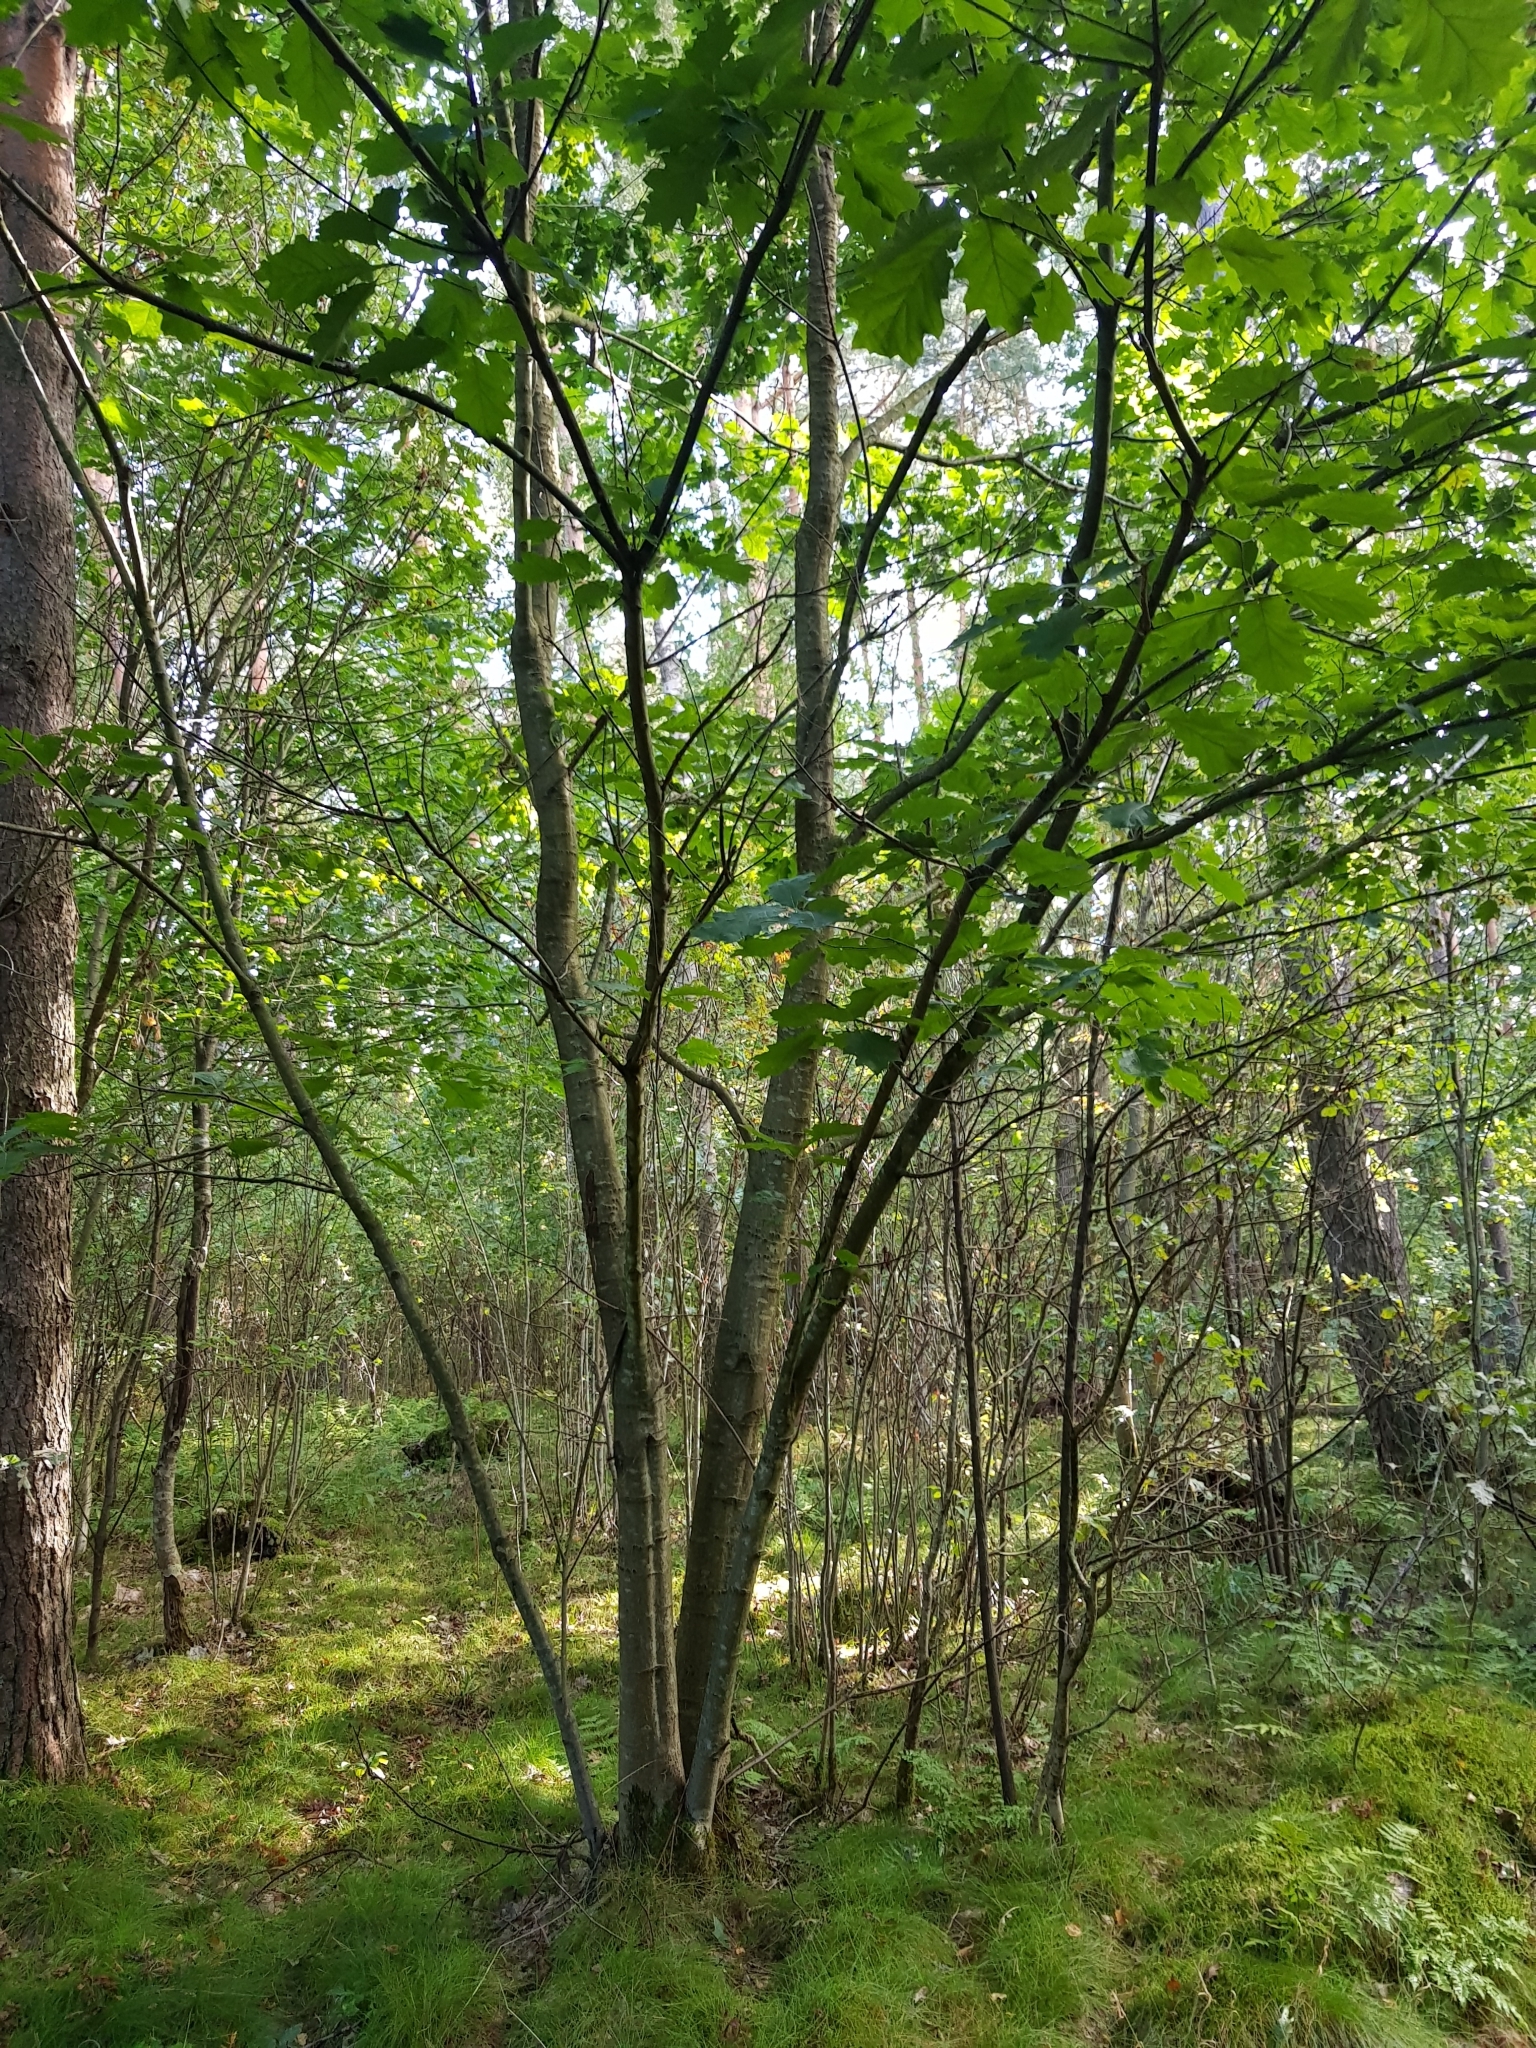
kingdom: Plantae
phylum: Tracheophyta
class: Magnoliopsida
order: Fagales
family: Fagaceae
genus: Quercus
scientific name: Quercus rubra
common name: Red oak
